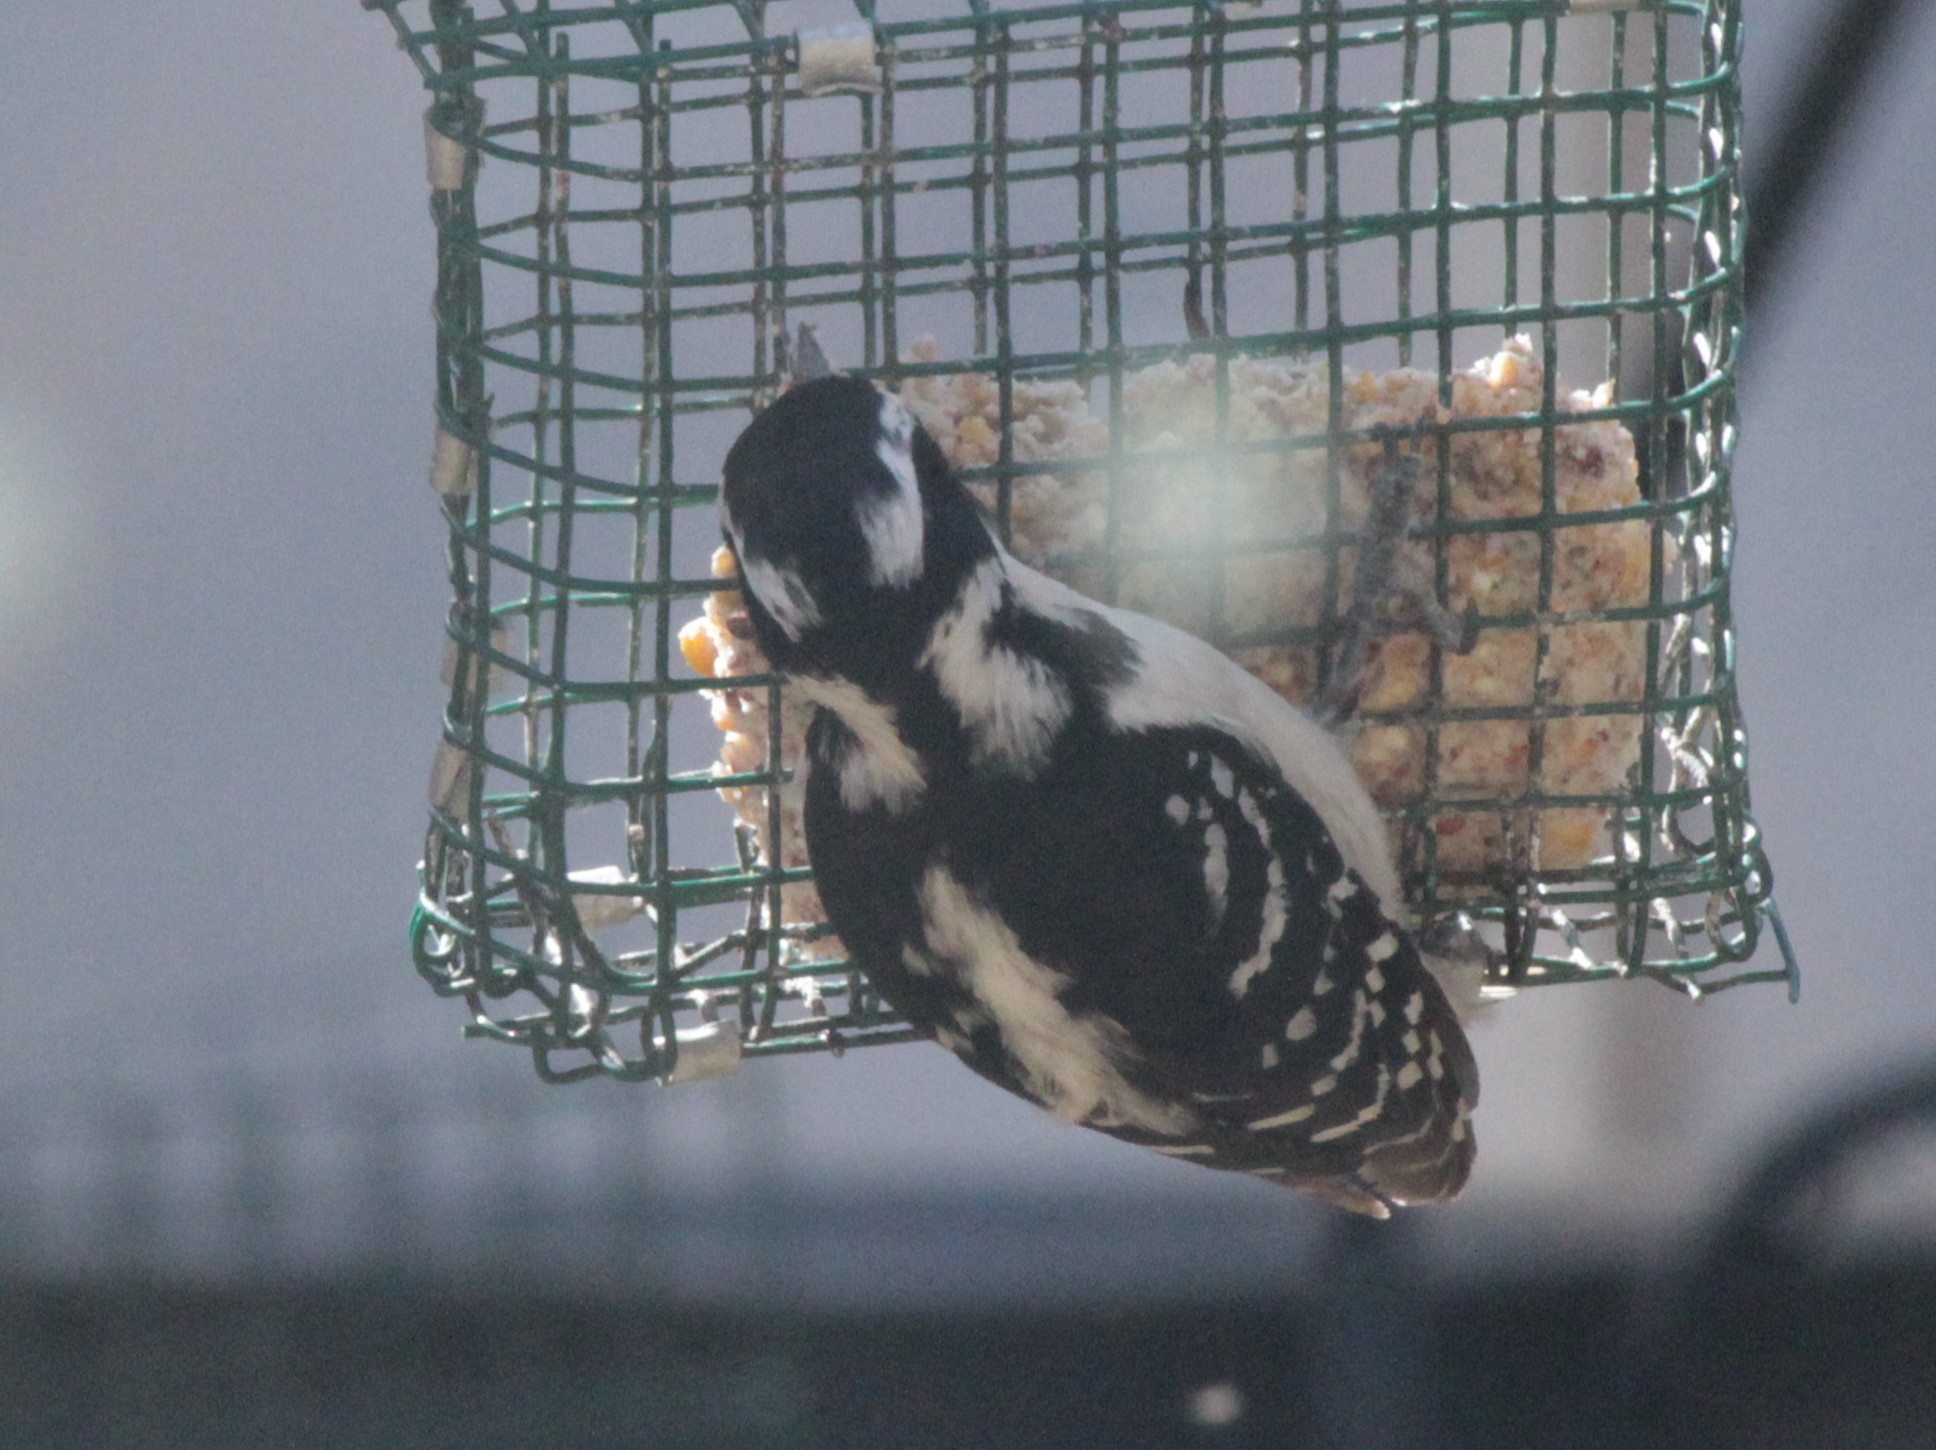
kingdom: Animalia
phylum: Chordata
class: Aves
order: Piciformes
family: Picidae
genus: Leuconotopicus
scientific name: Leuconotopicus villosus
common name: Hairy woodpecker
